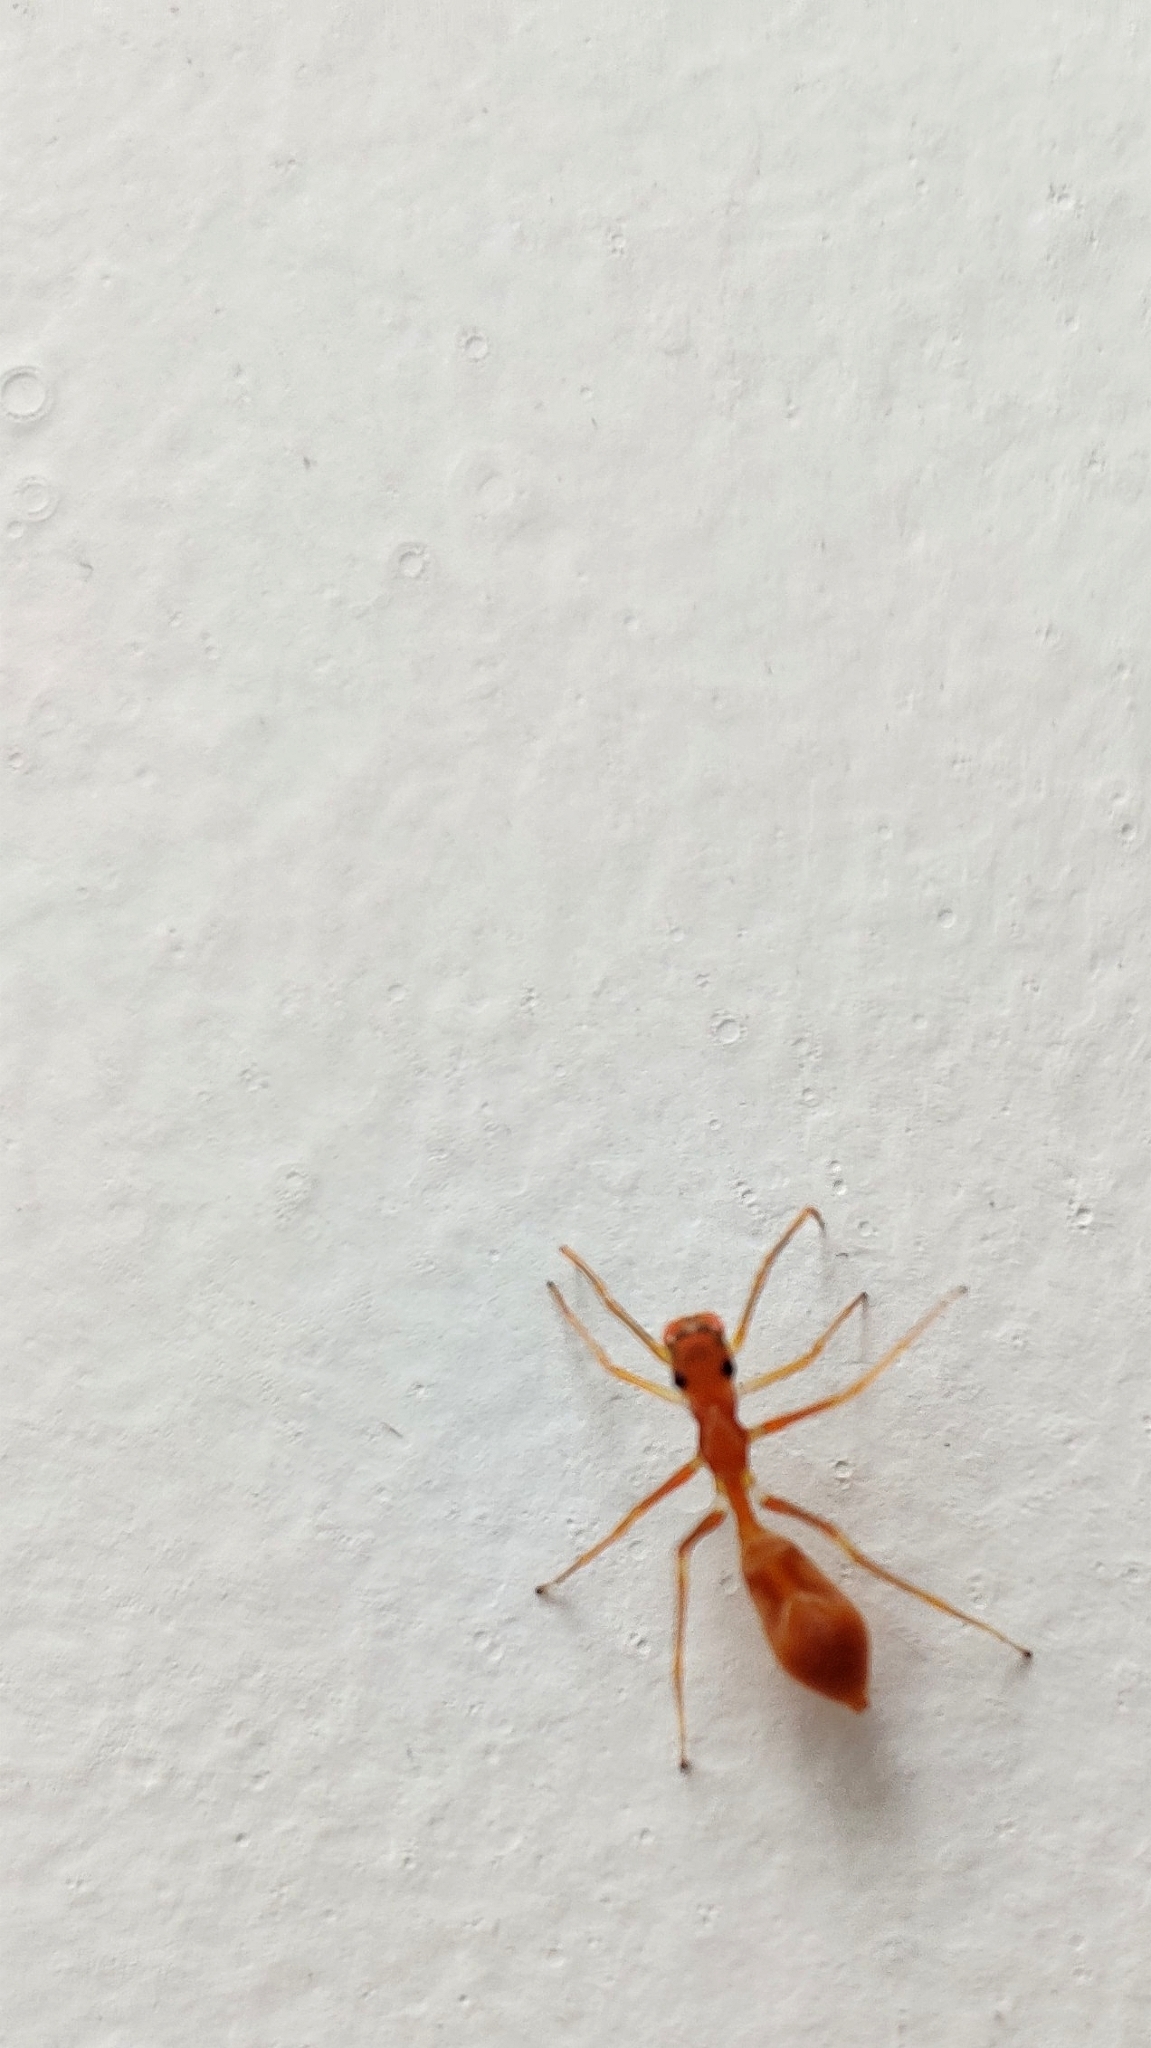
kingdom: Animalia
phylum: Arthropoda
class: Arachnida
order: Araneae
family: Salticidae
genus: Myrmaplata
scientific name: Myrmaplata plataleoides
